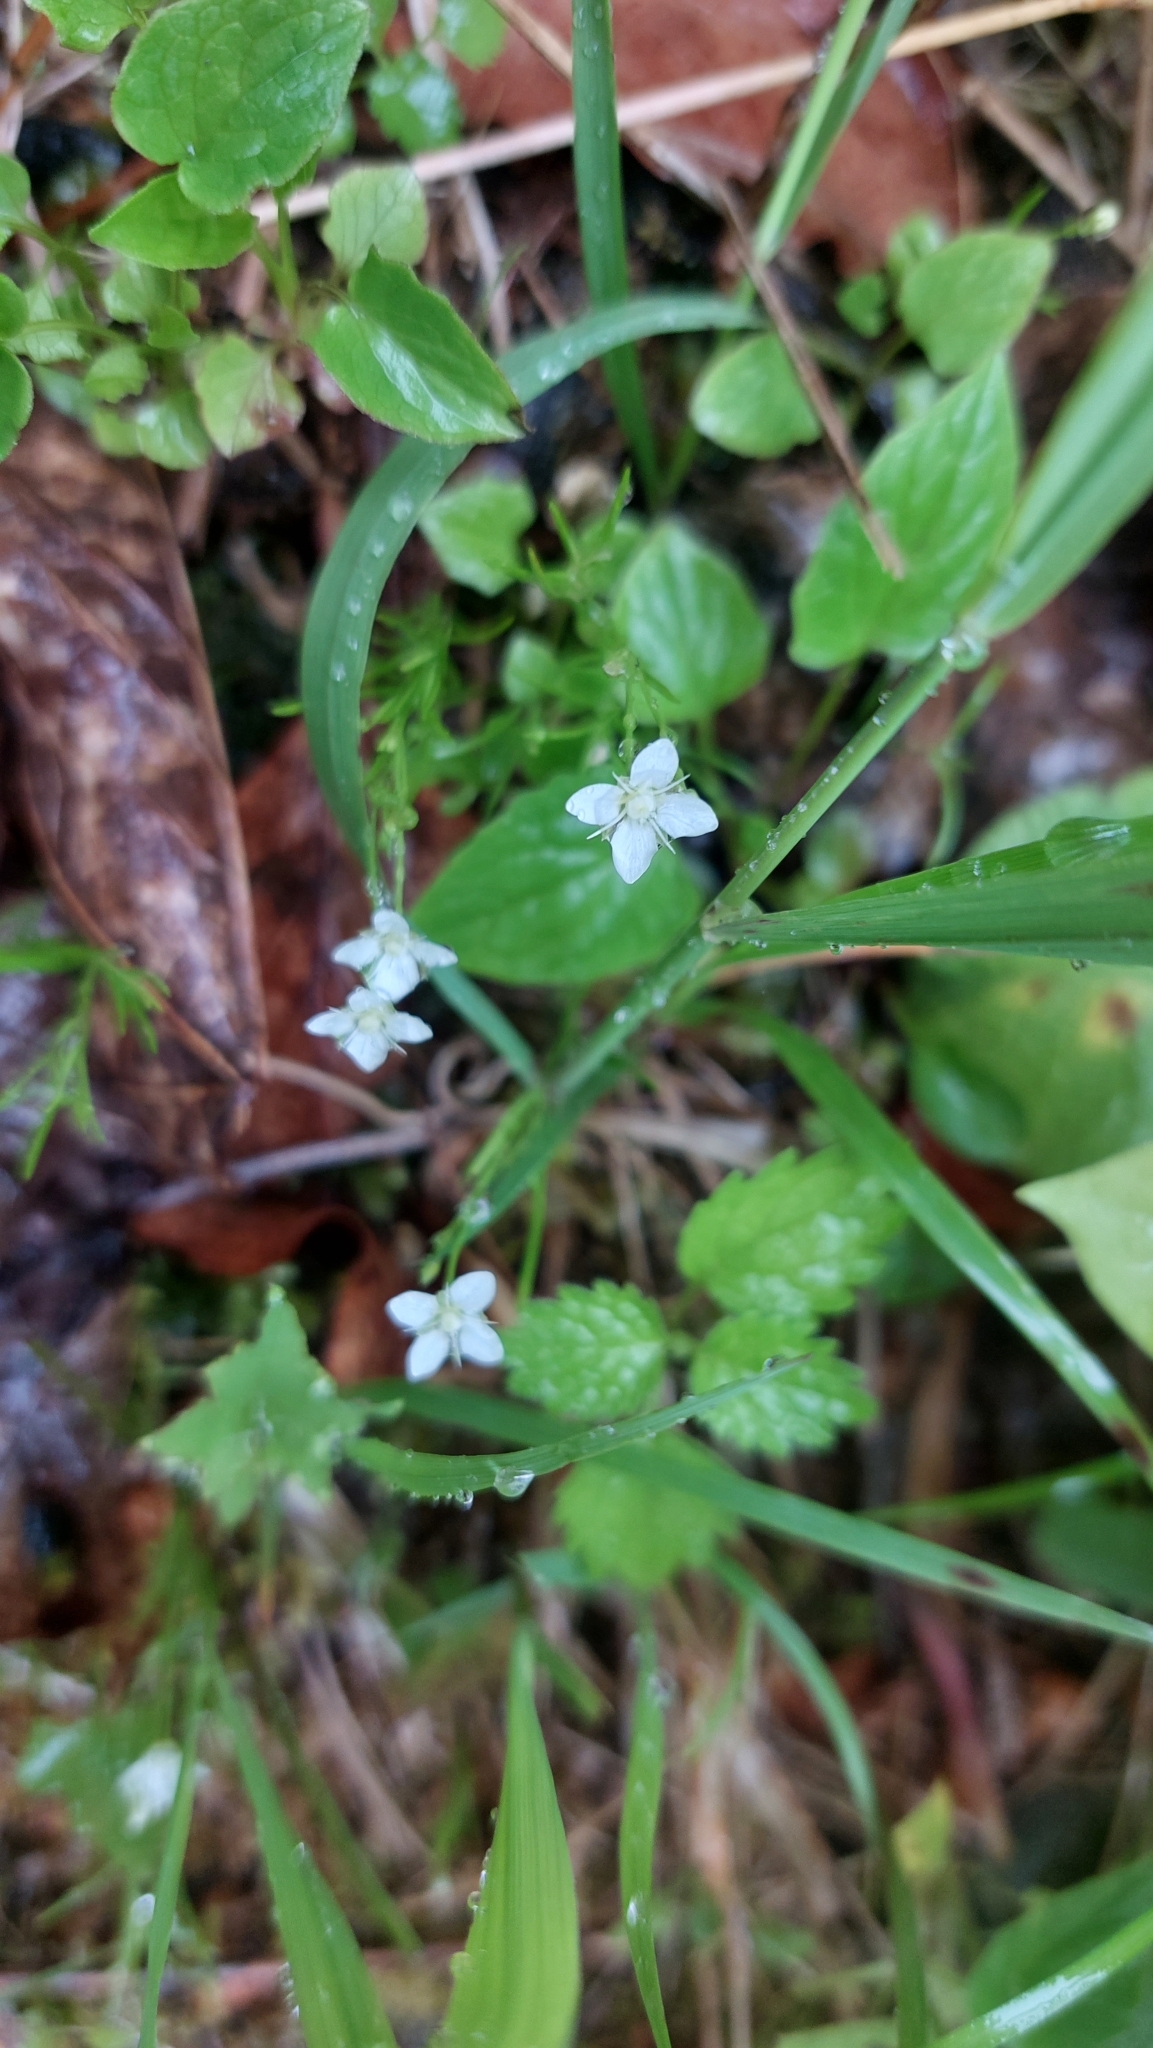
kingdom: Plantae
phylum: Tracheophyta
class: Magnoliopsida
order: Caryophyllales
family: Caryophyllaceae
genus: Moehringia
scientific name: Moehringia muscosa
